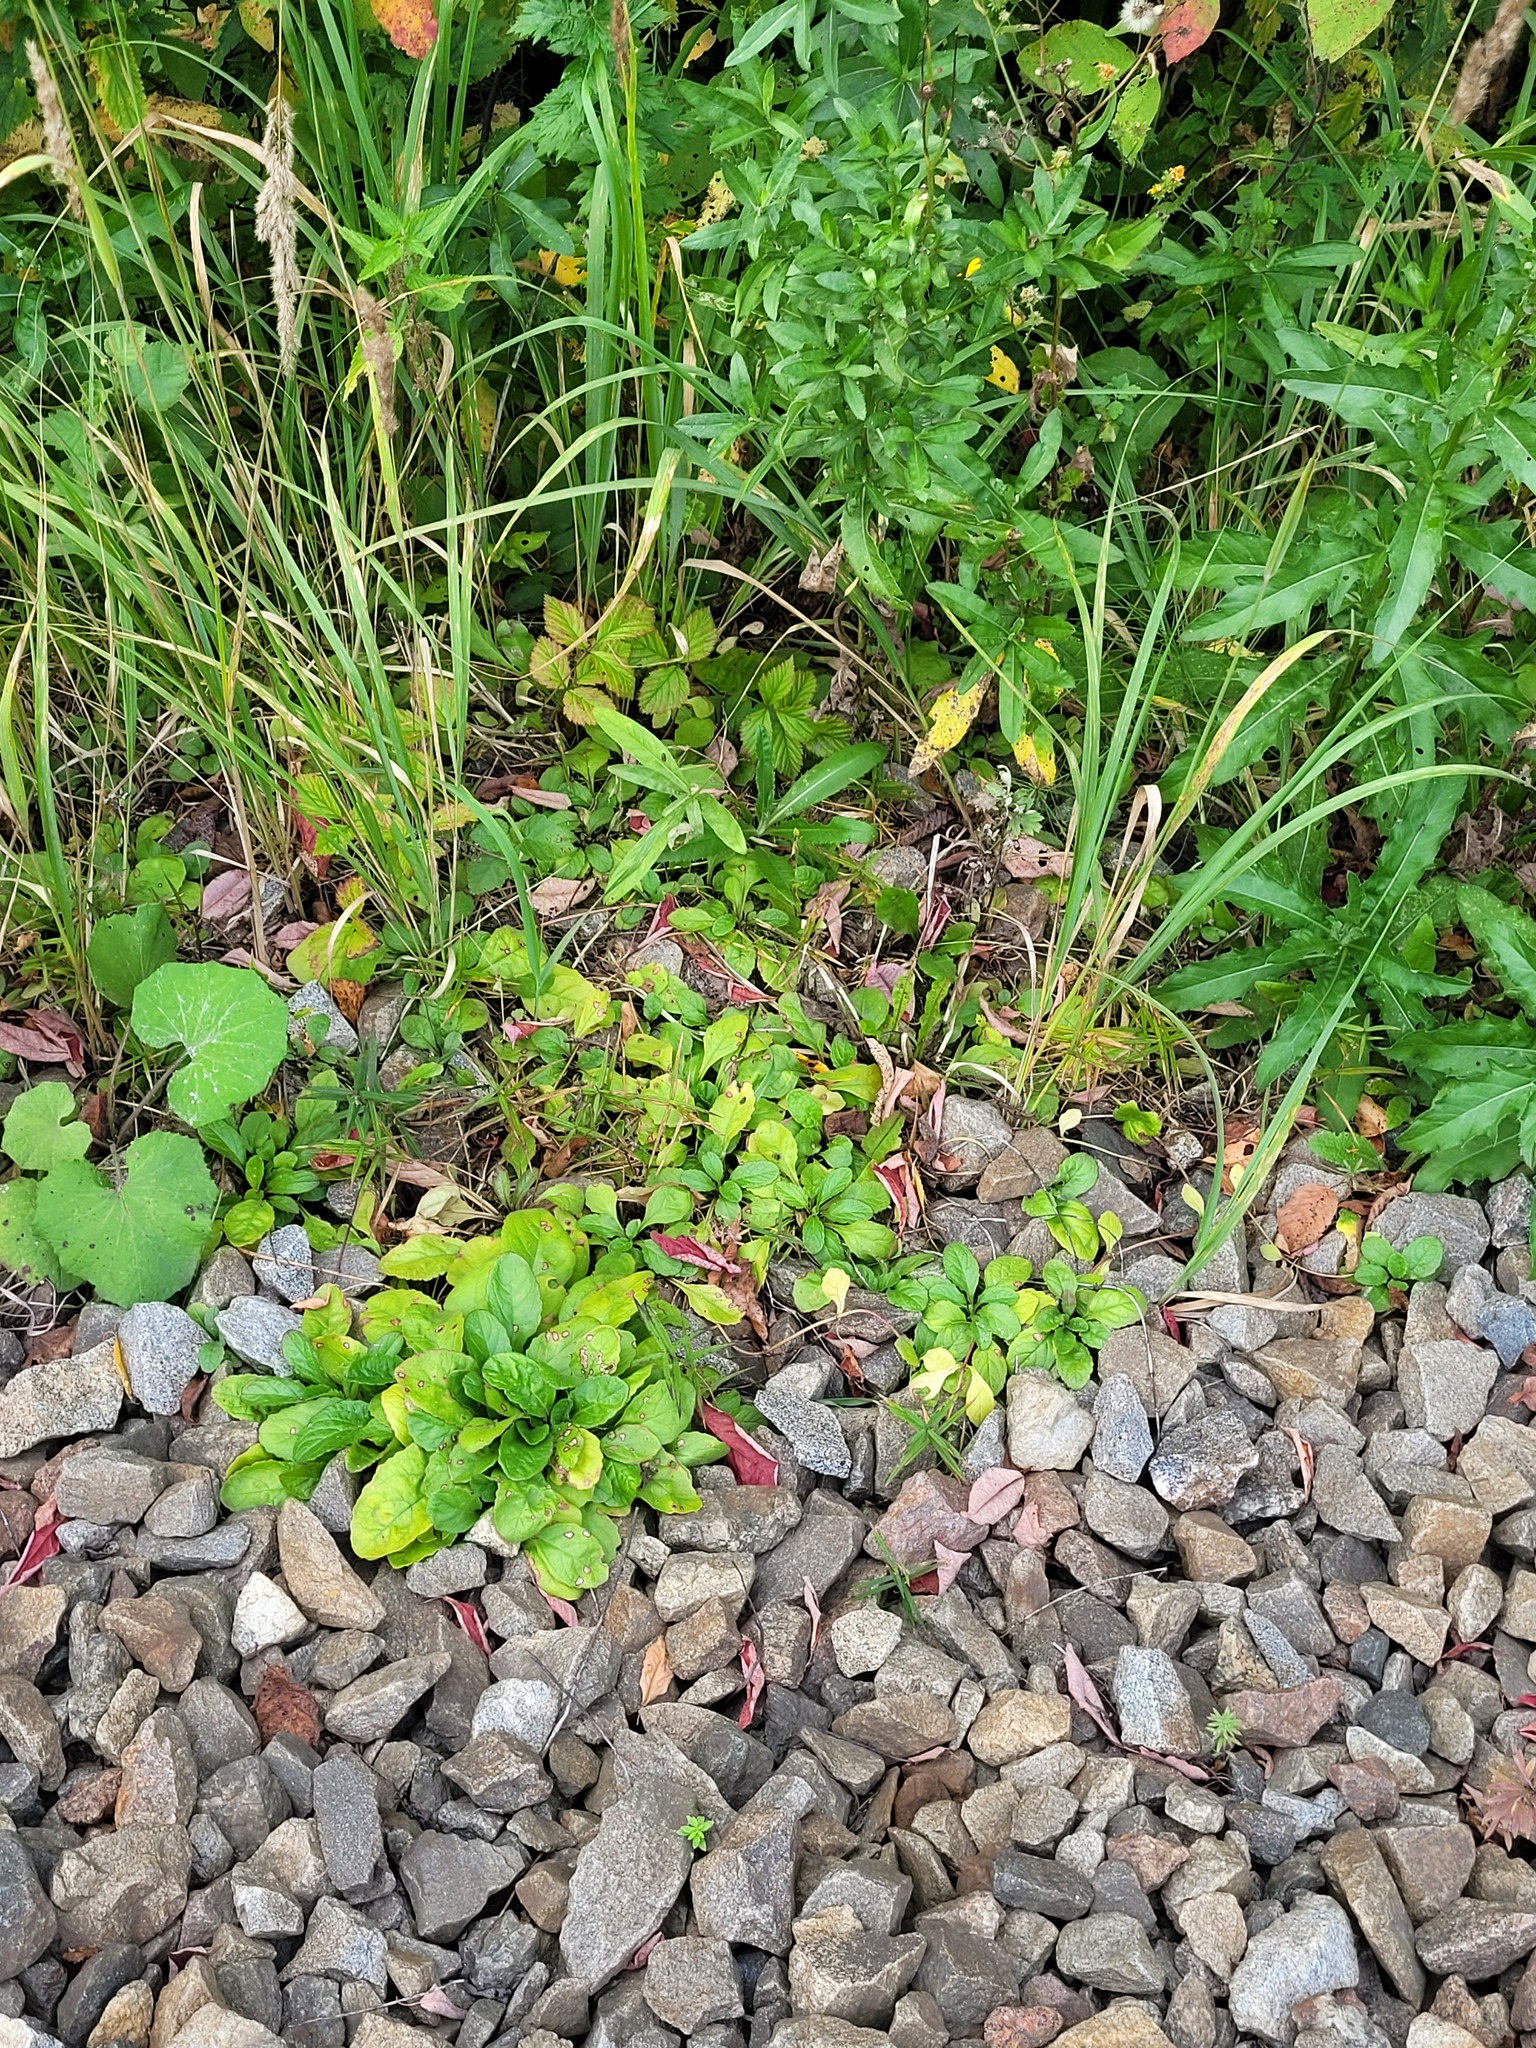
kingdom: Plantae
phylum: Tracheophyta
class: Magnoliopsida
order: Lamiales
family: Lamiaceae
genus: Ajuga
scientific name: Ajuga reptans
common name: Bugle
